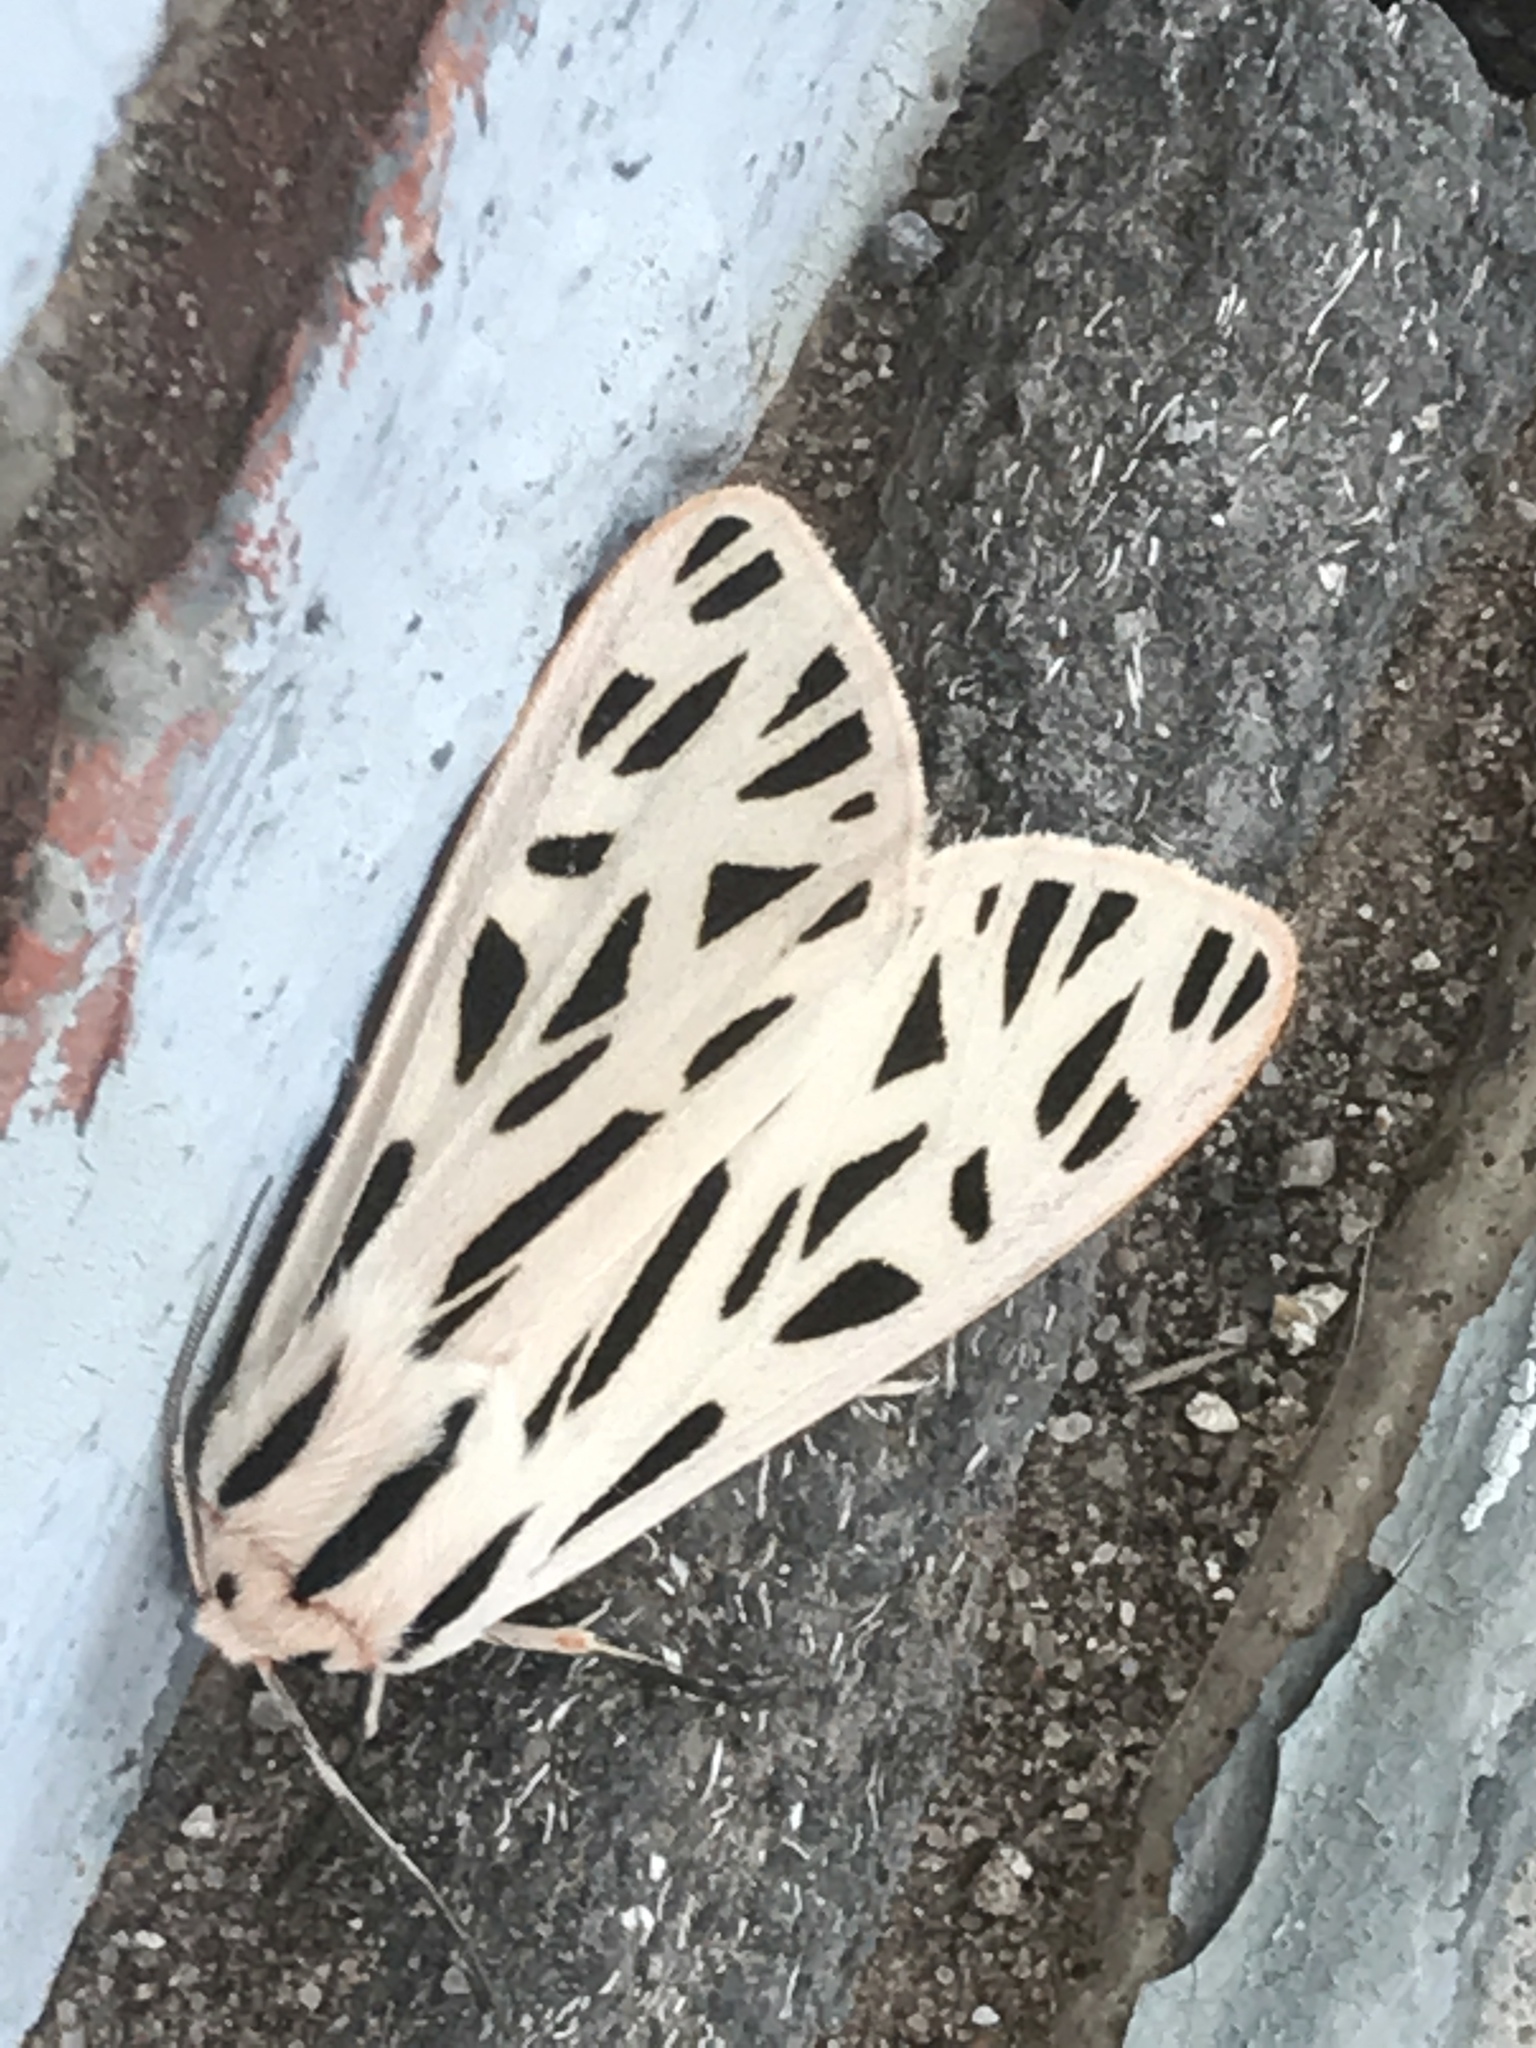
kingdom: Animalia
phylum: Arthropoda
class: Insecta
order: Lepidoptera
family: Erebidae
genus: Apantesis
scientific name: Apantesis arge
